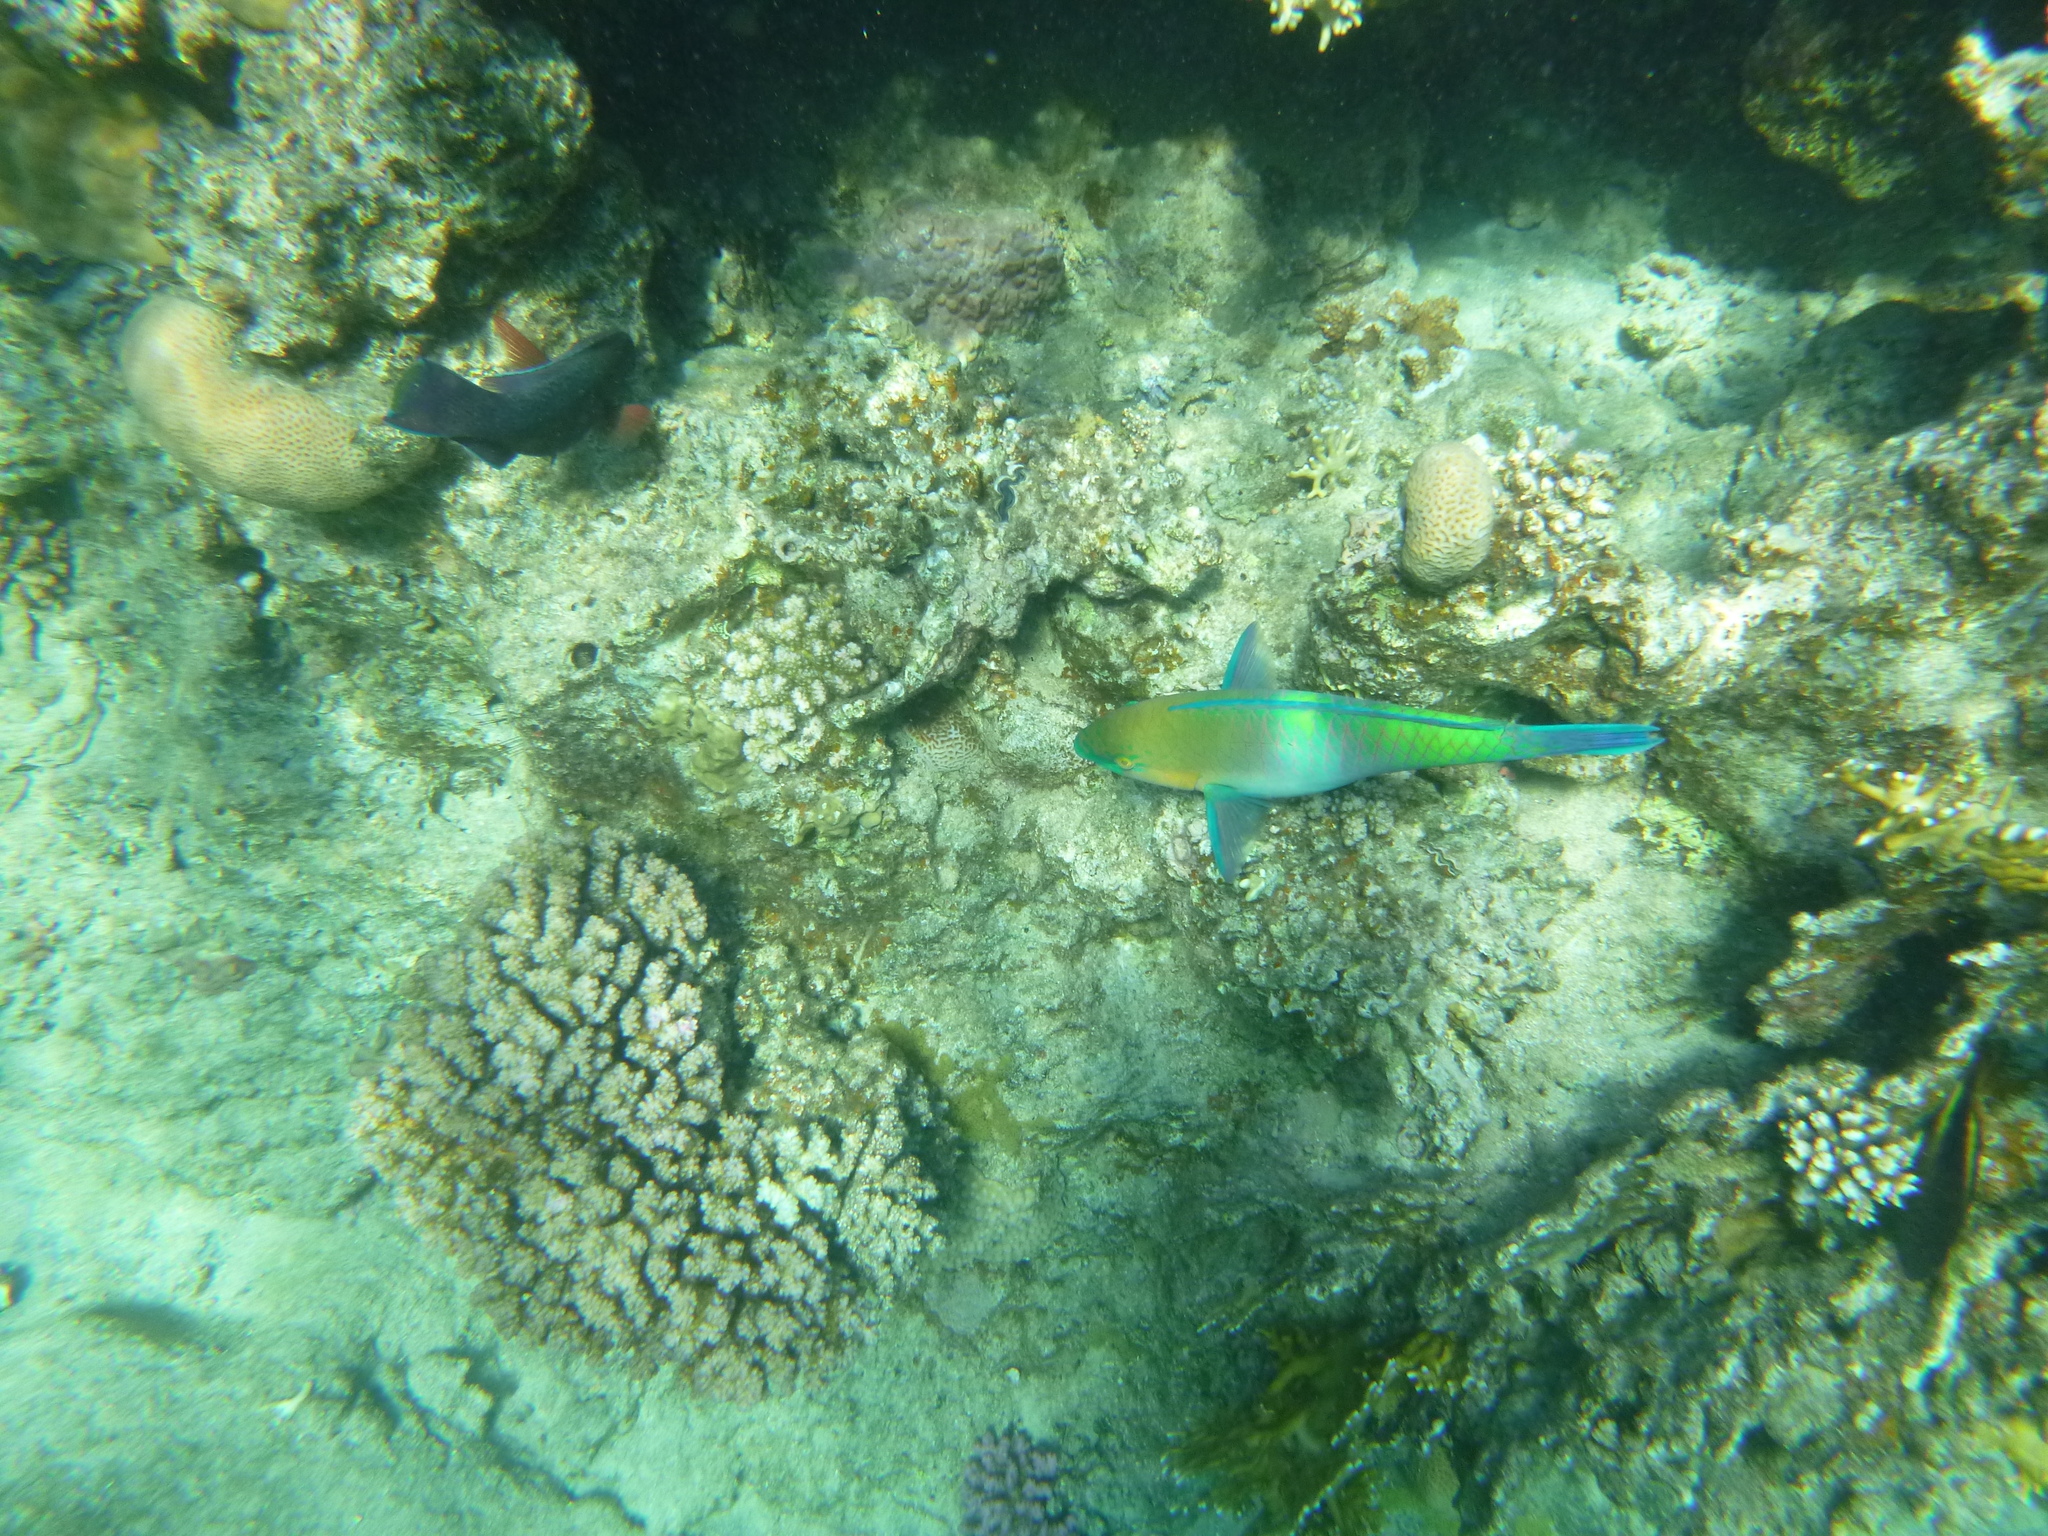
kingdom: Animalia
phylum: Chordata
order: Perciformes
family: Scaridae
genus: Scarus
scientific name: Scarus ferrugineus
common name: Rusty parrotfish
